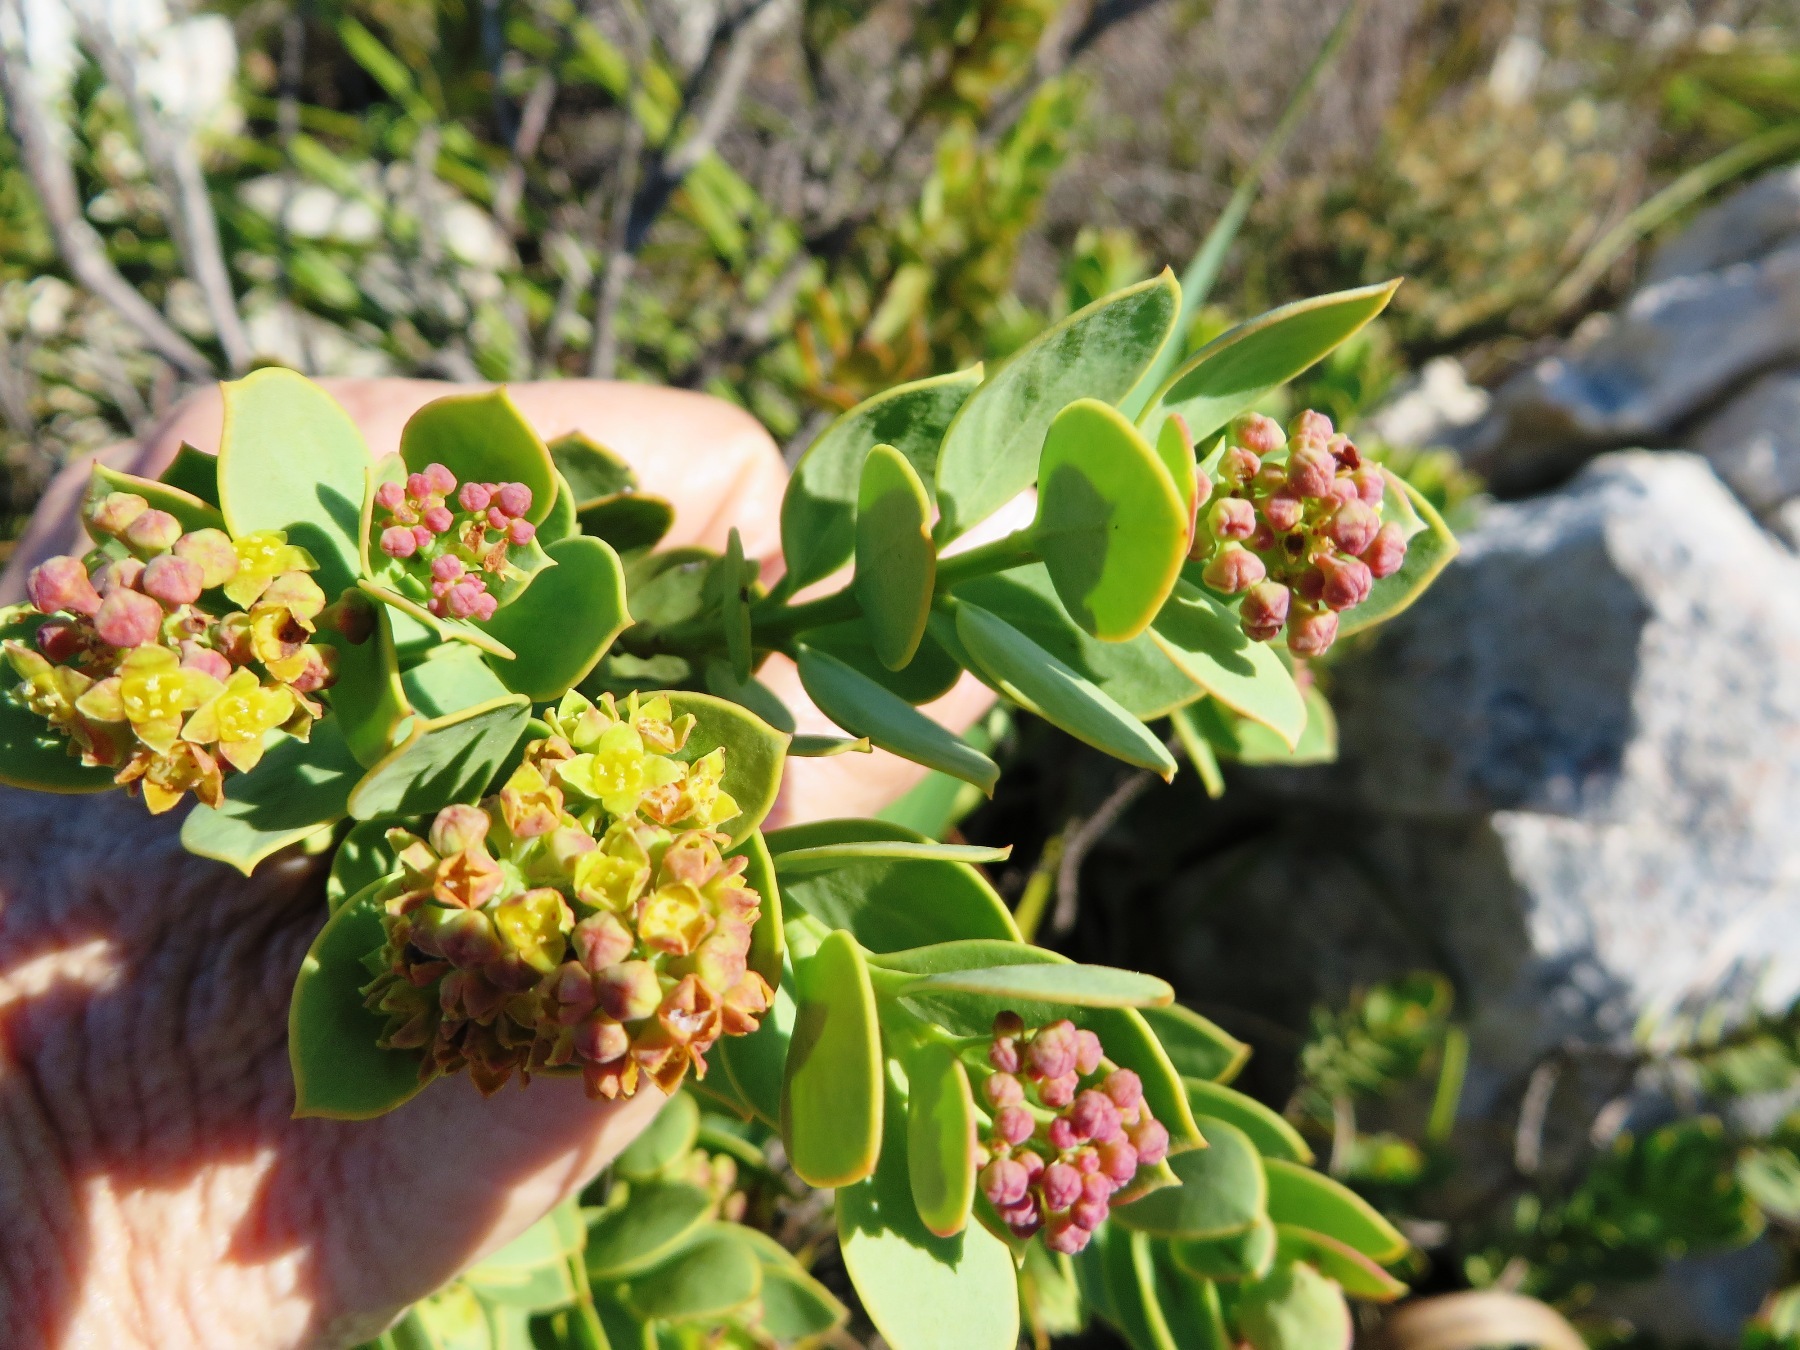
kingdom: Plantae
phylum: Tracheophyta
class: Magnoliopsida
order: Santalales
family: Santalaceae
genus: Osyris
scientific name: Osyris speciosa
